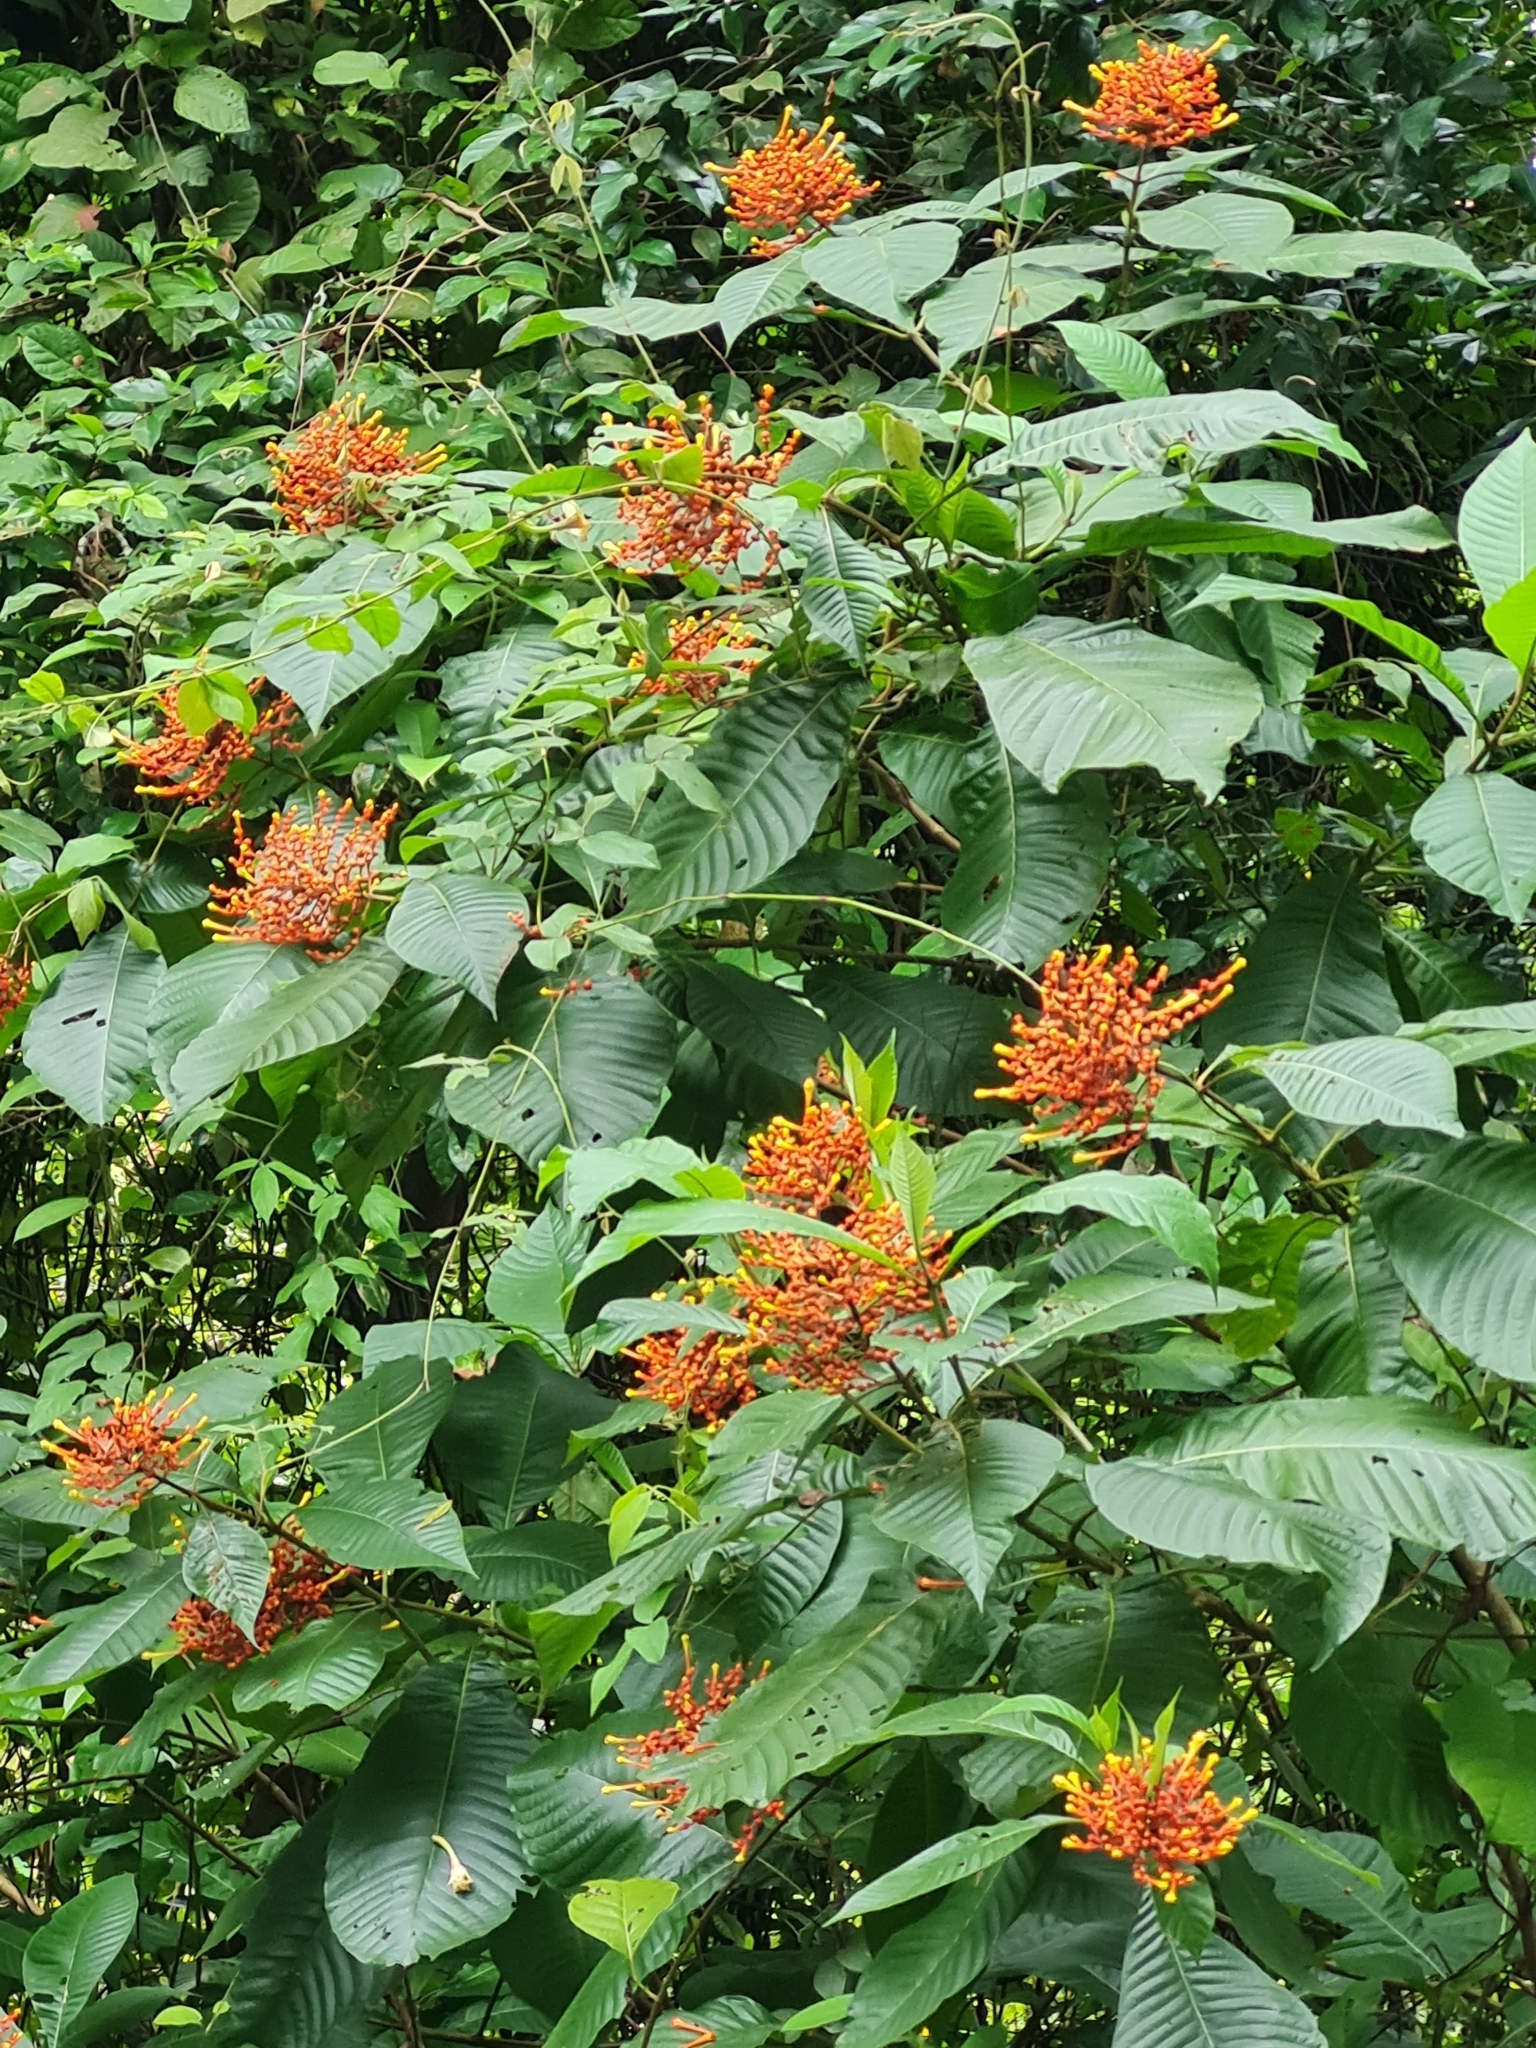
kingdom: Plantae
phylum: Tracheophyta
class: Magnoliopsida
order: Gentianales
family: Rubiaceae
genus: Isertia
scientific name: Isertia haenkeana
